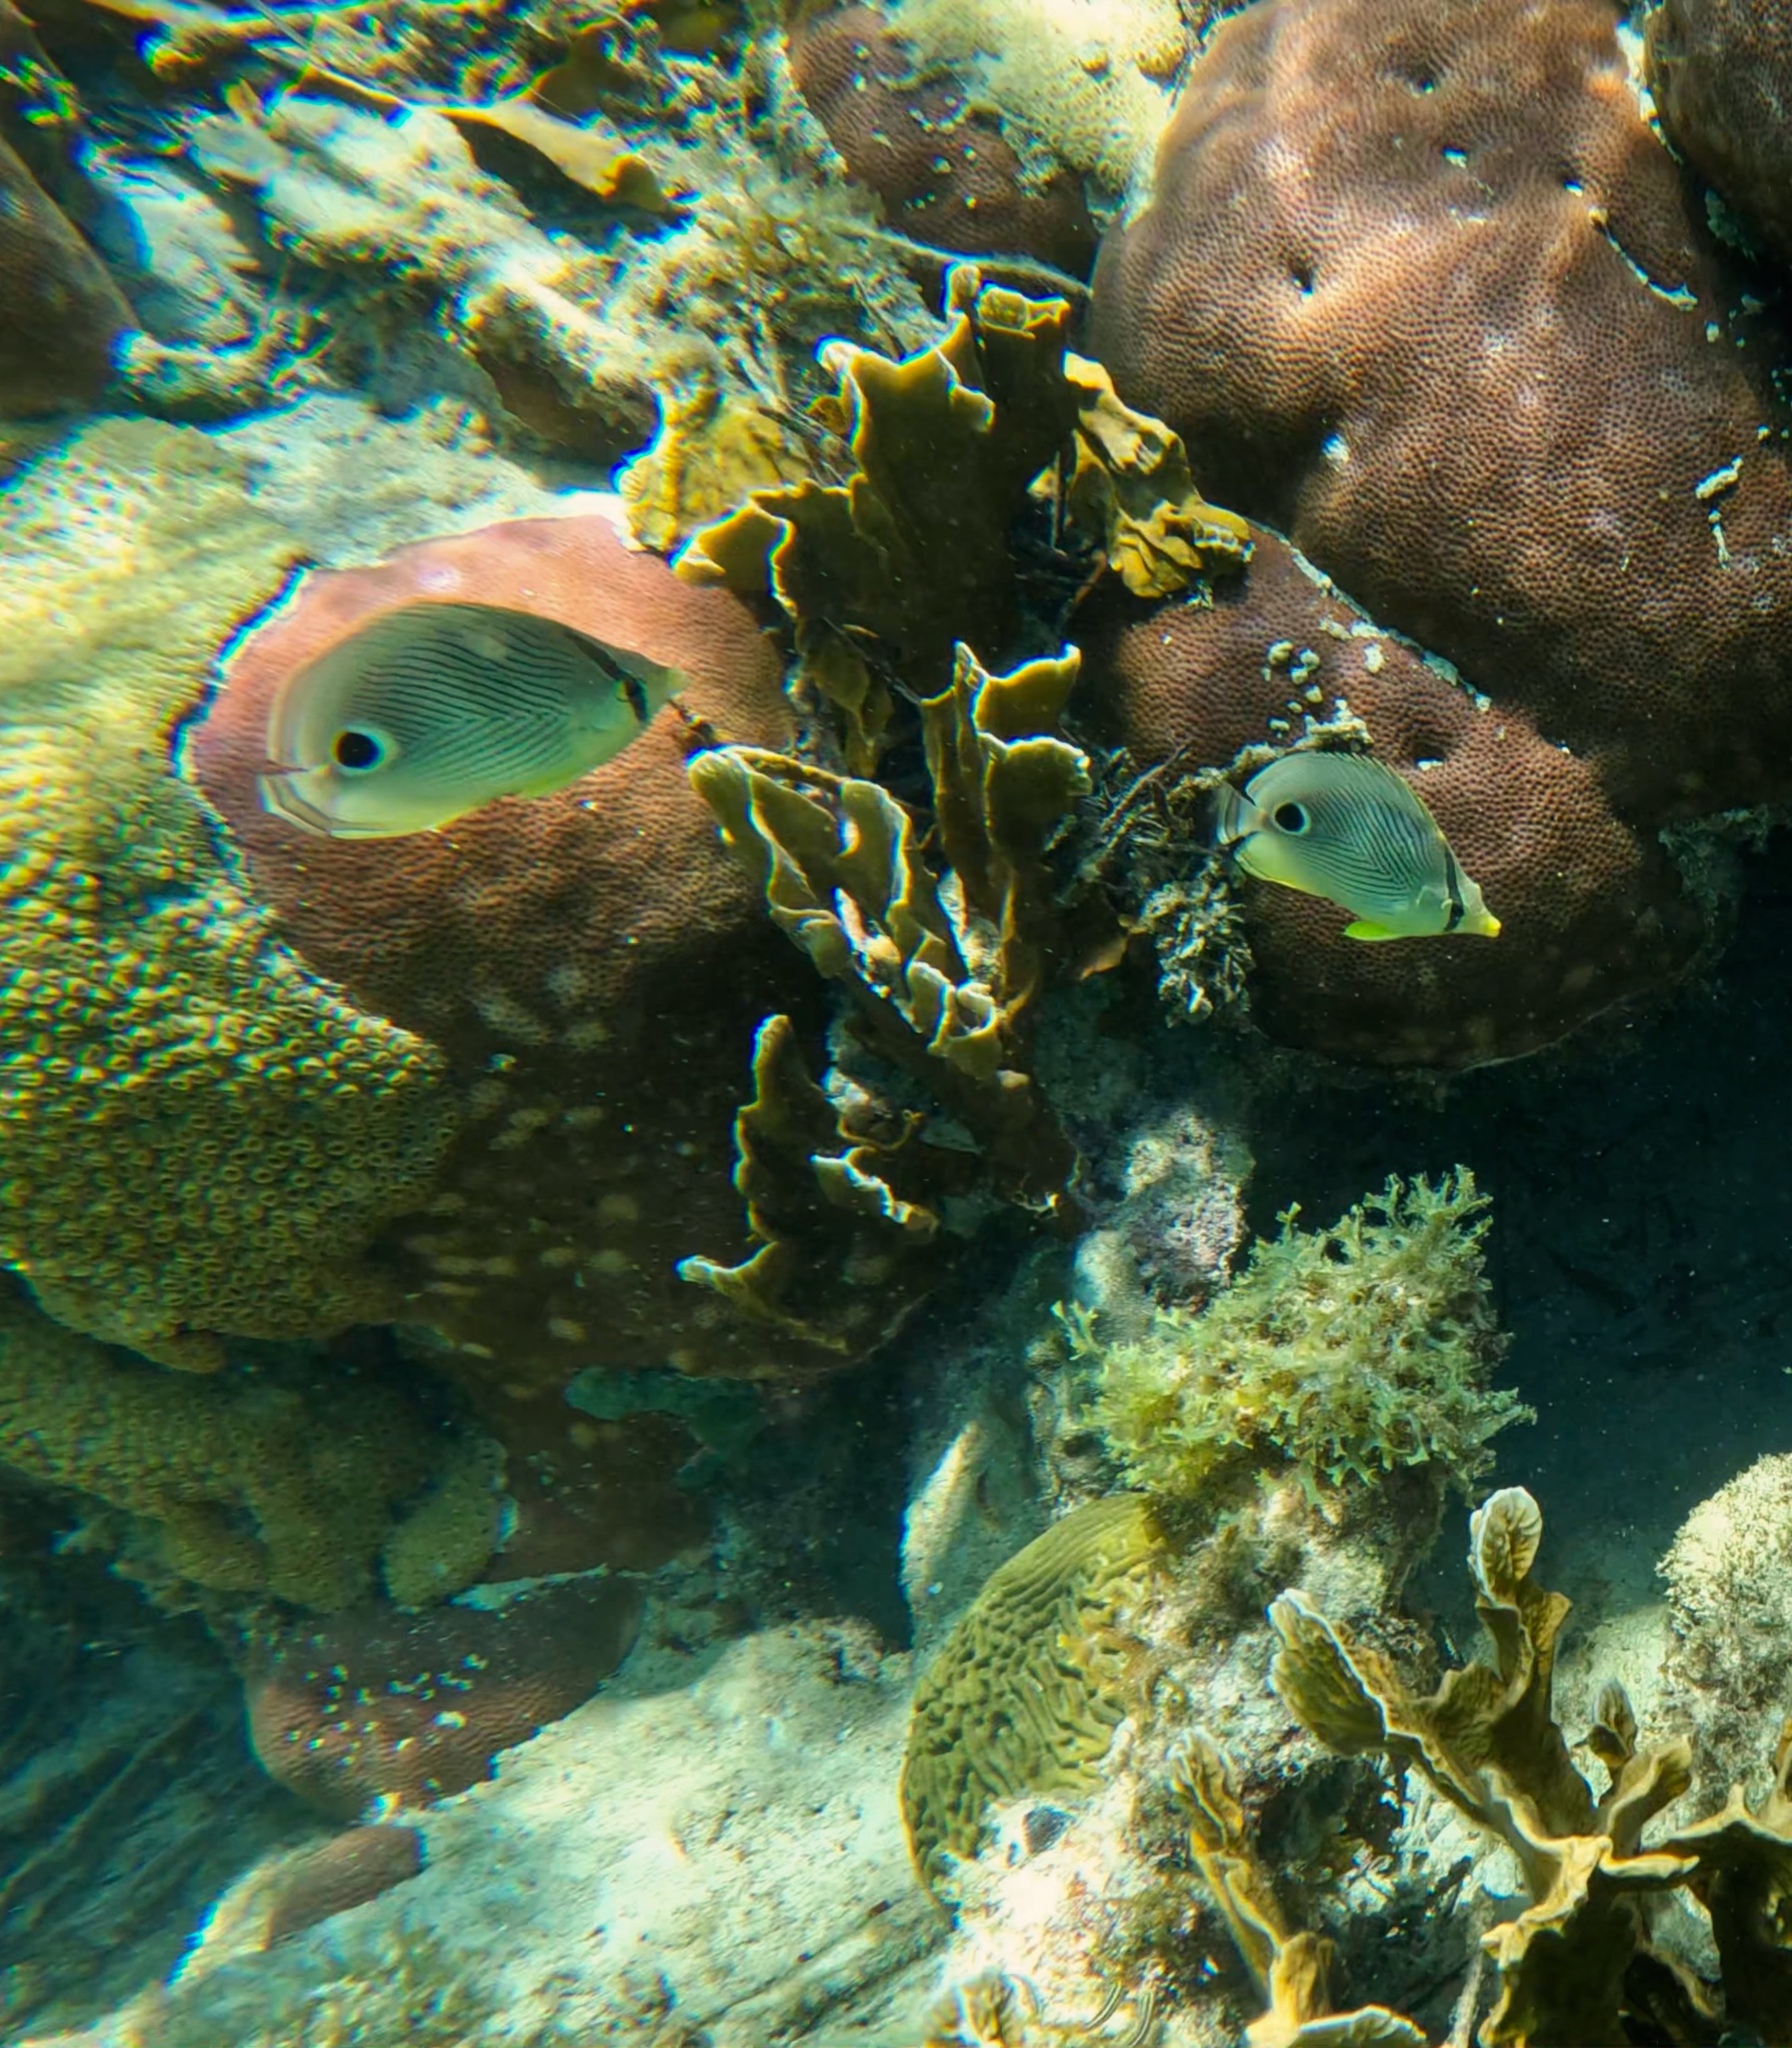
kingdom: Animalia
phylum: Chordata
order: Perciformes
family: Chaetodontidae
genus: Chaetodon
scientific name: Chaetodon capistratus
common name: Kete
